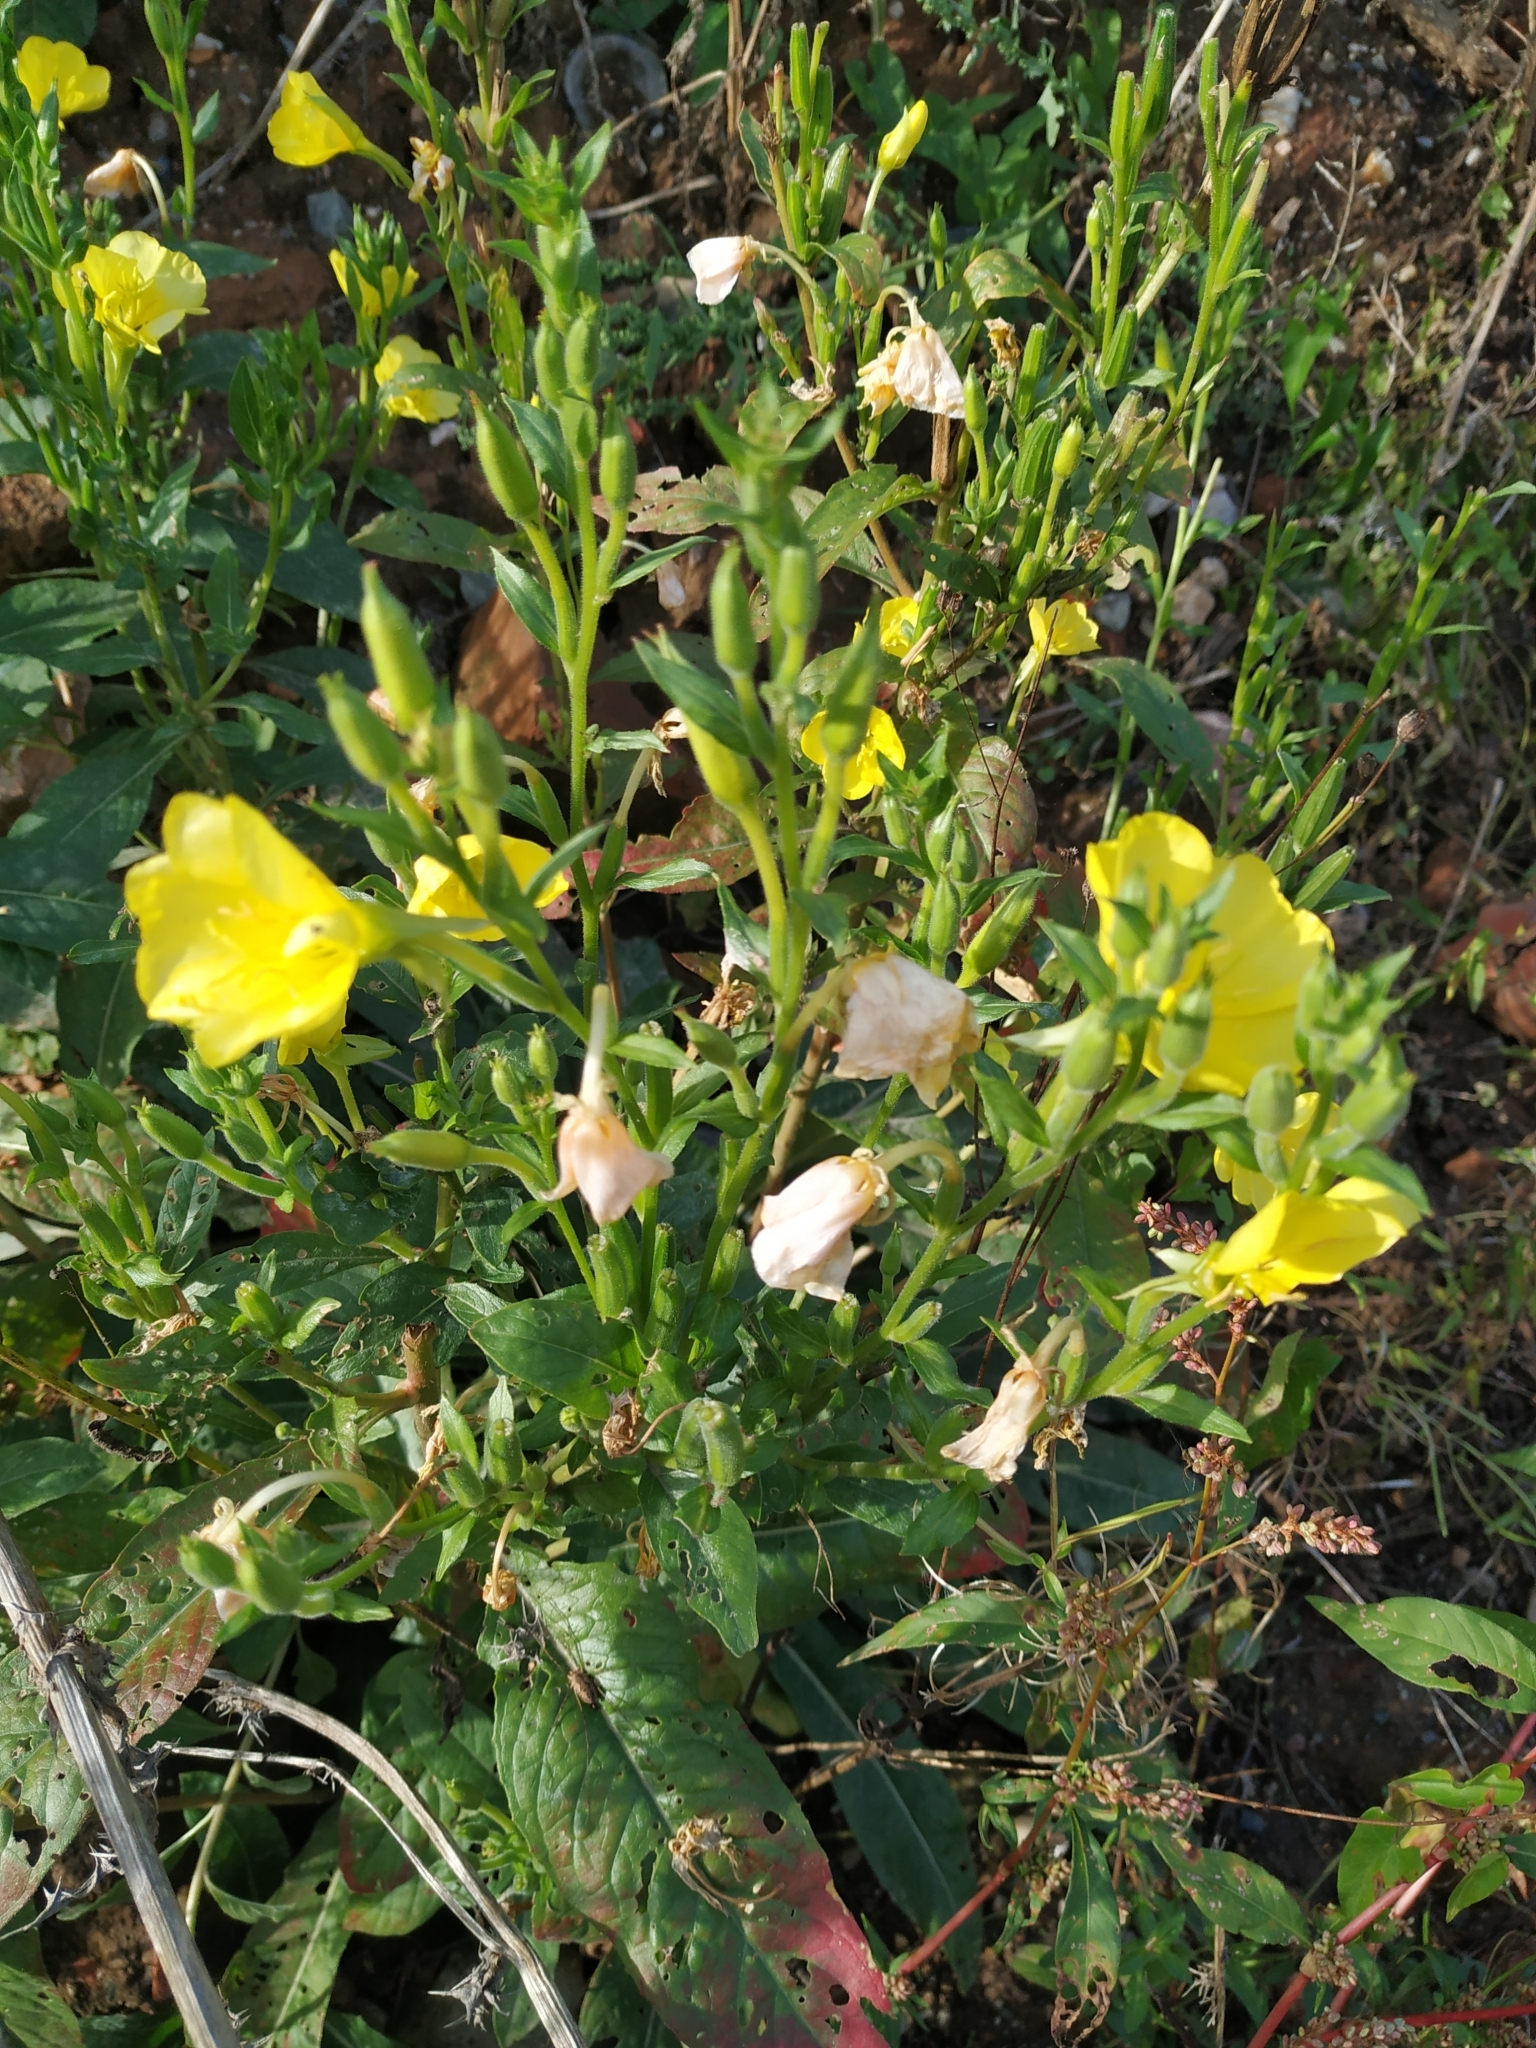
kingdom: Plantae
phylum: Tracheophyta
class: Magnoliopsida
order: Myrtales
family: Onagraceae
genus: Oenothera
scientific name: Oenothera biennis
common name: Common evening-primrose
